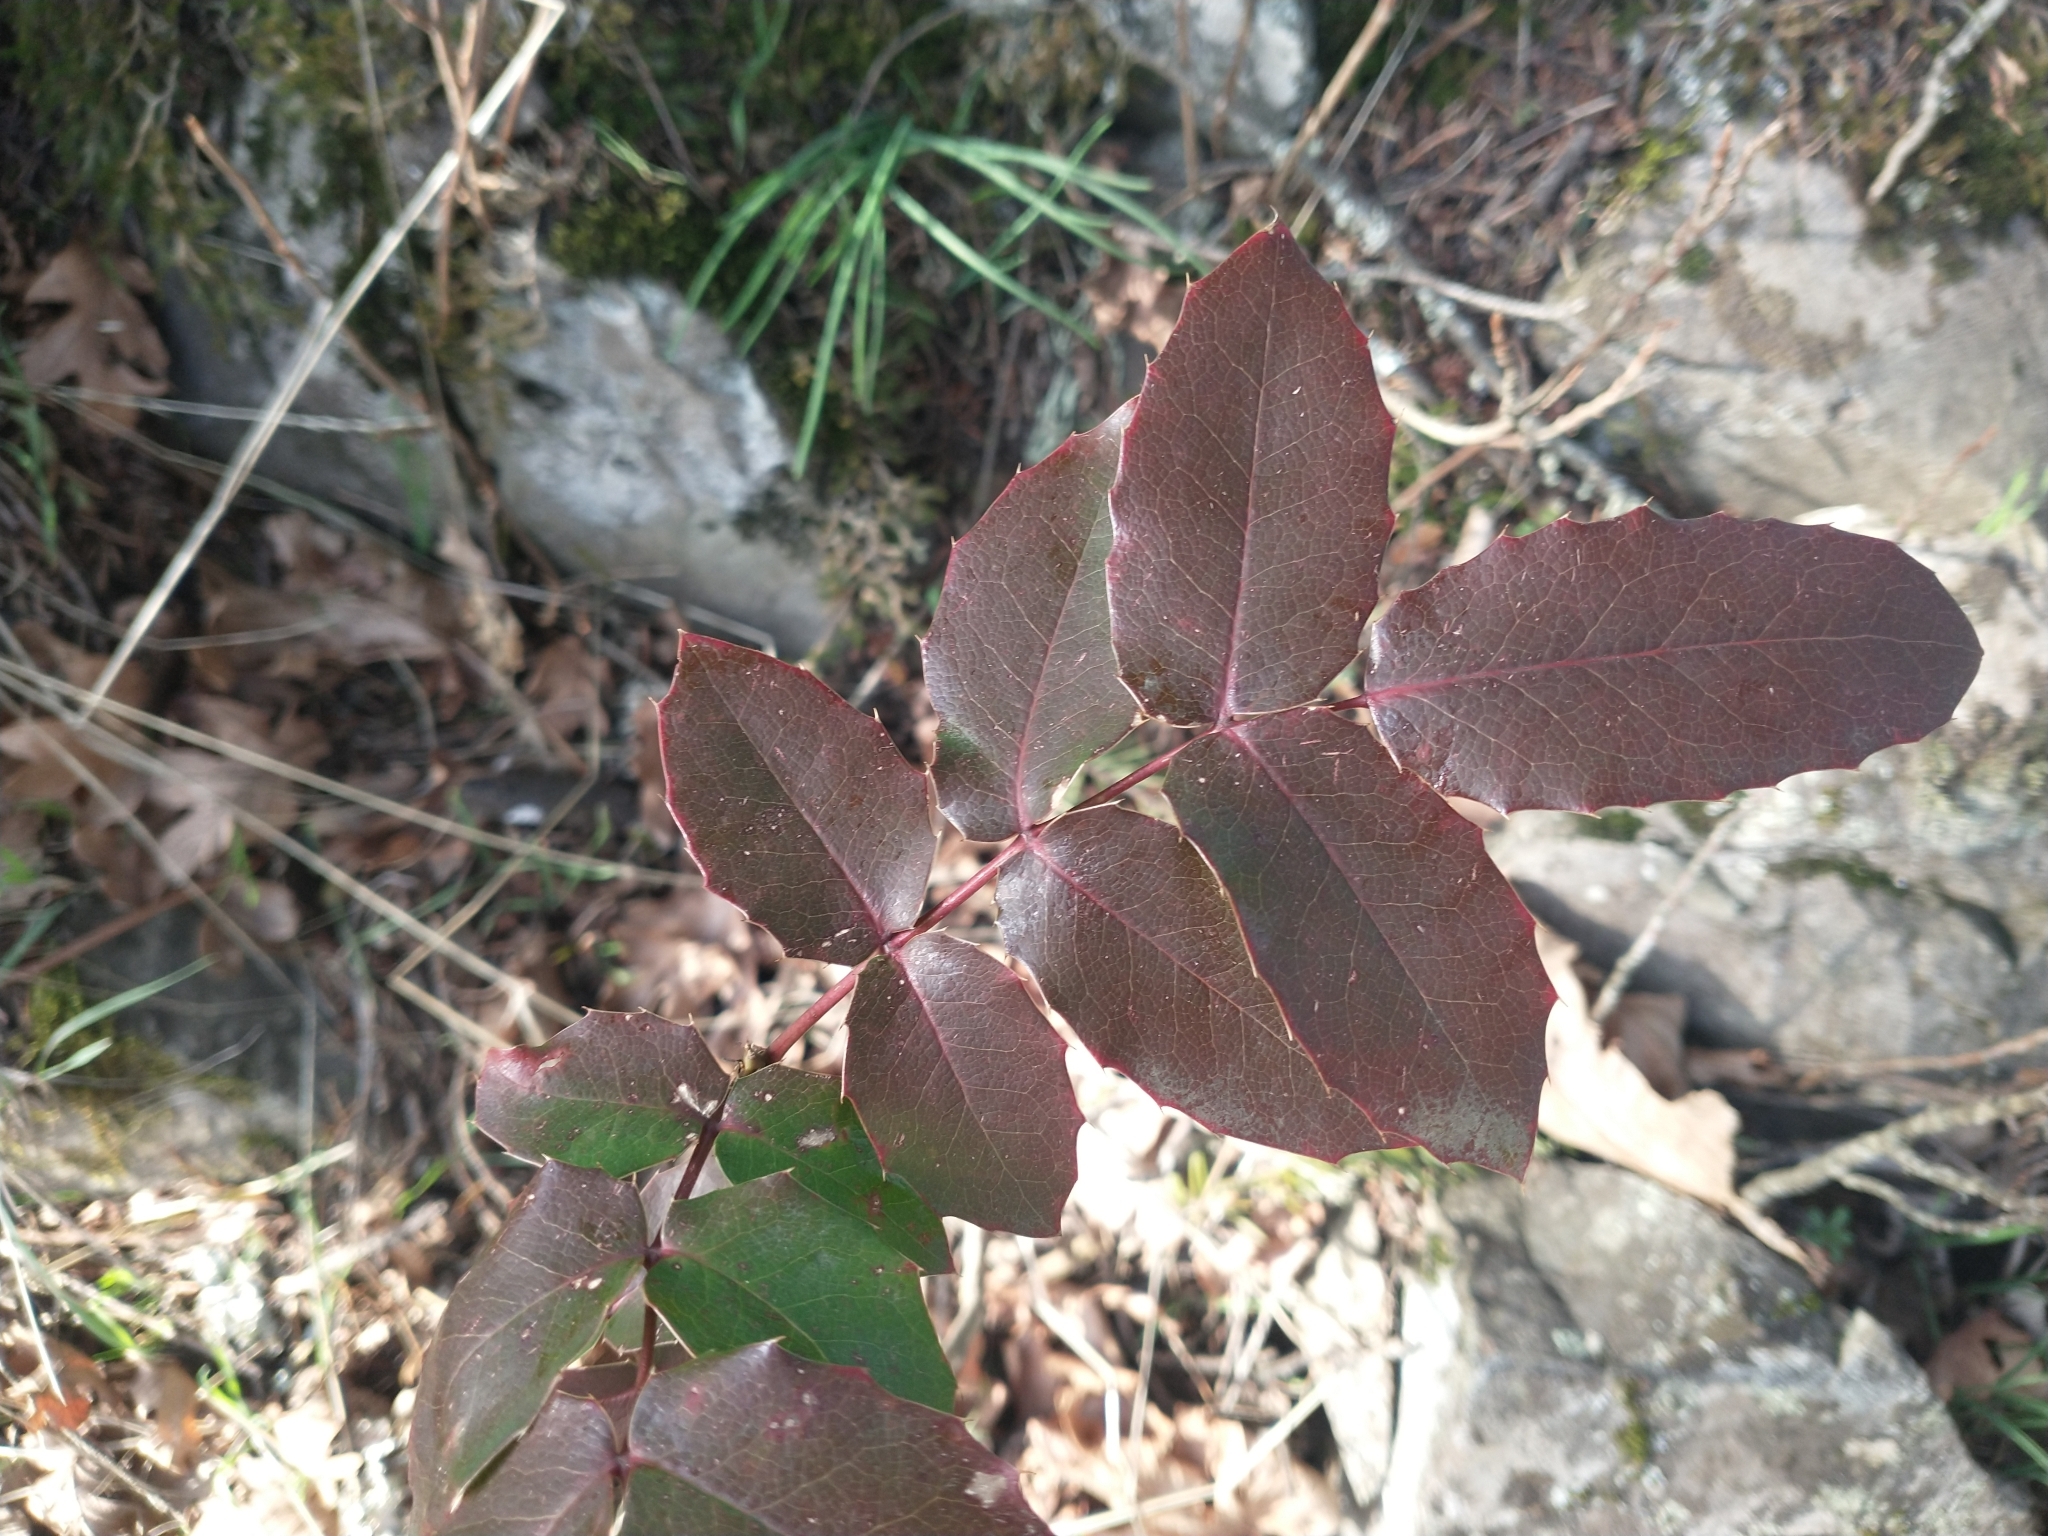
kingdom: Plantae
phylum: Tracheophyta
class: Magnoliopsida
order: Ranunculales
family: Berberidaceae
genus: Mahonia
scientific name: Mahonia aquifolium
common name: Oregon-grape
